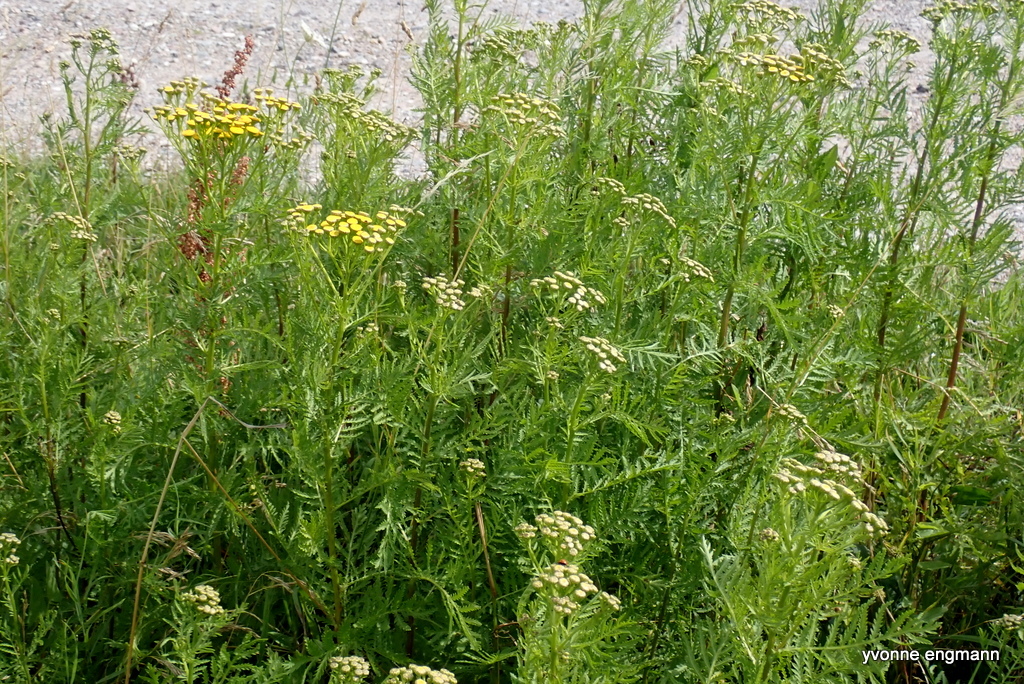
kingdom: Plantae
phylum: Tracheophyta
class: Magnoliopsida
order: Asterales
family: Asteraceae
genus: Tanacetum
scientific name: Tanacetum vulgare
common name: Common tansy
